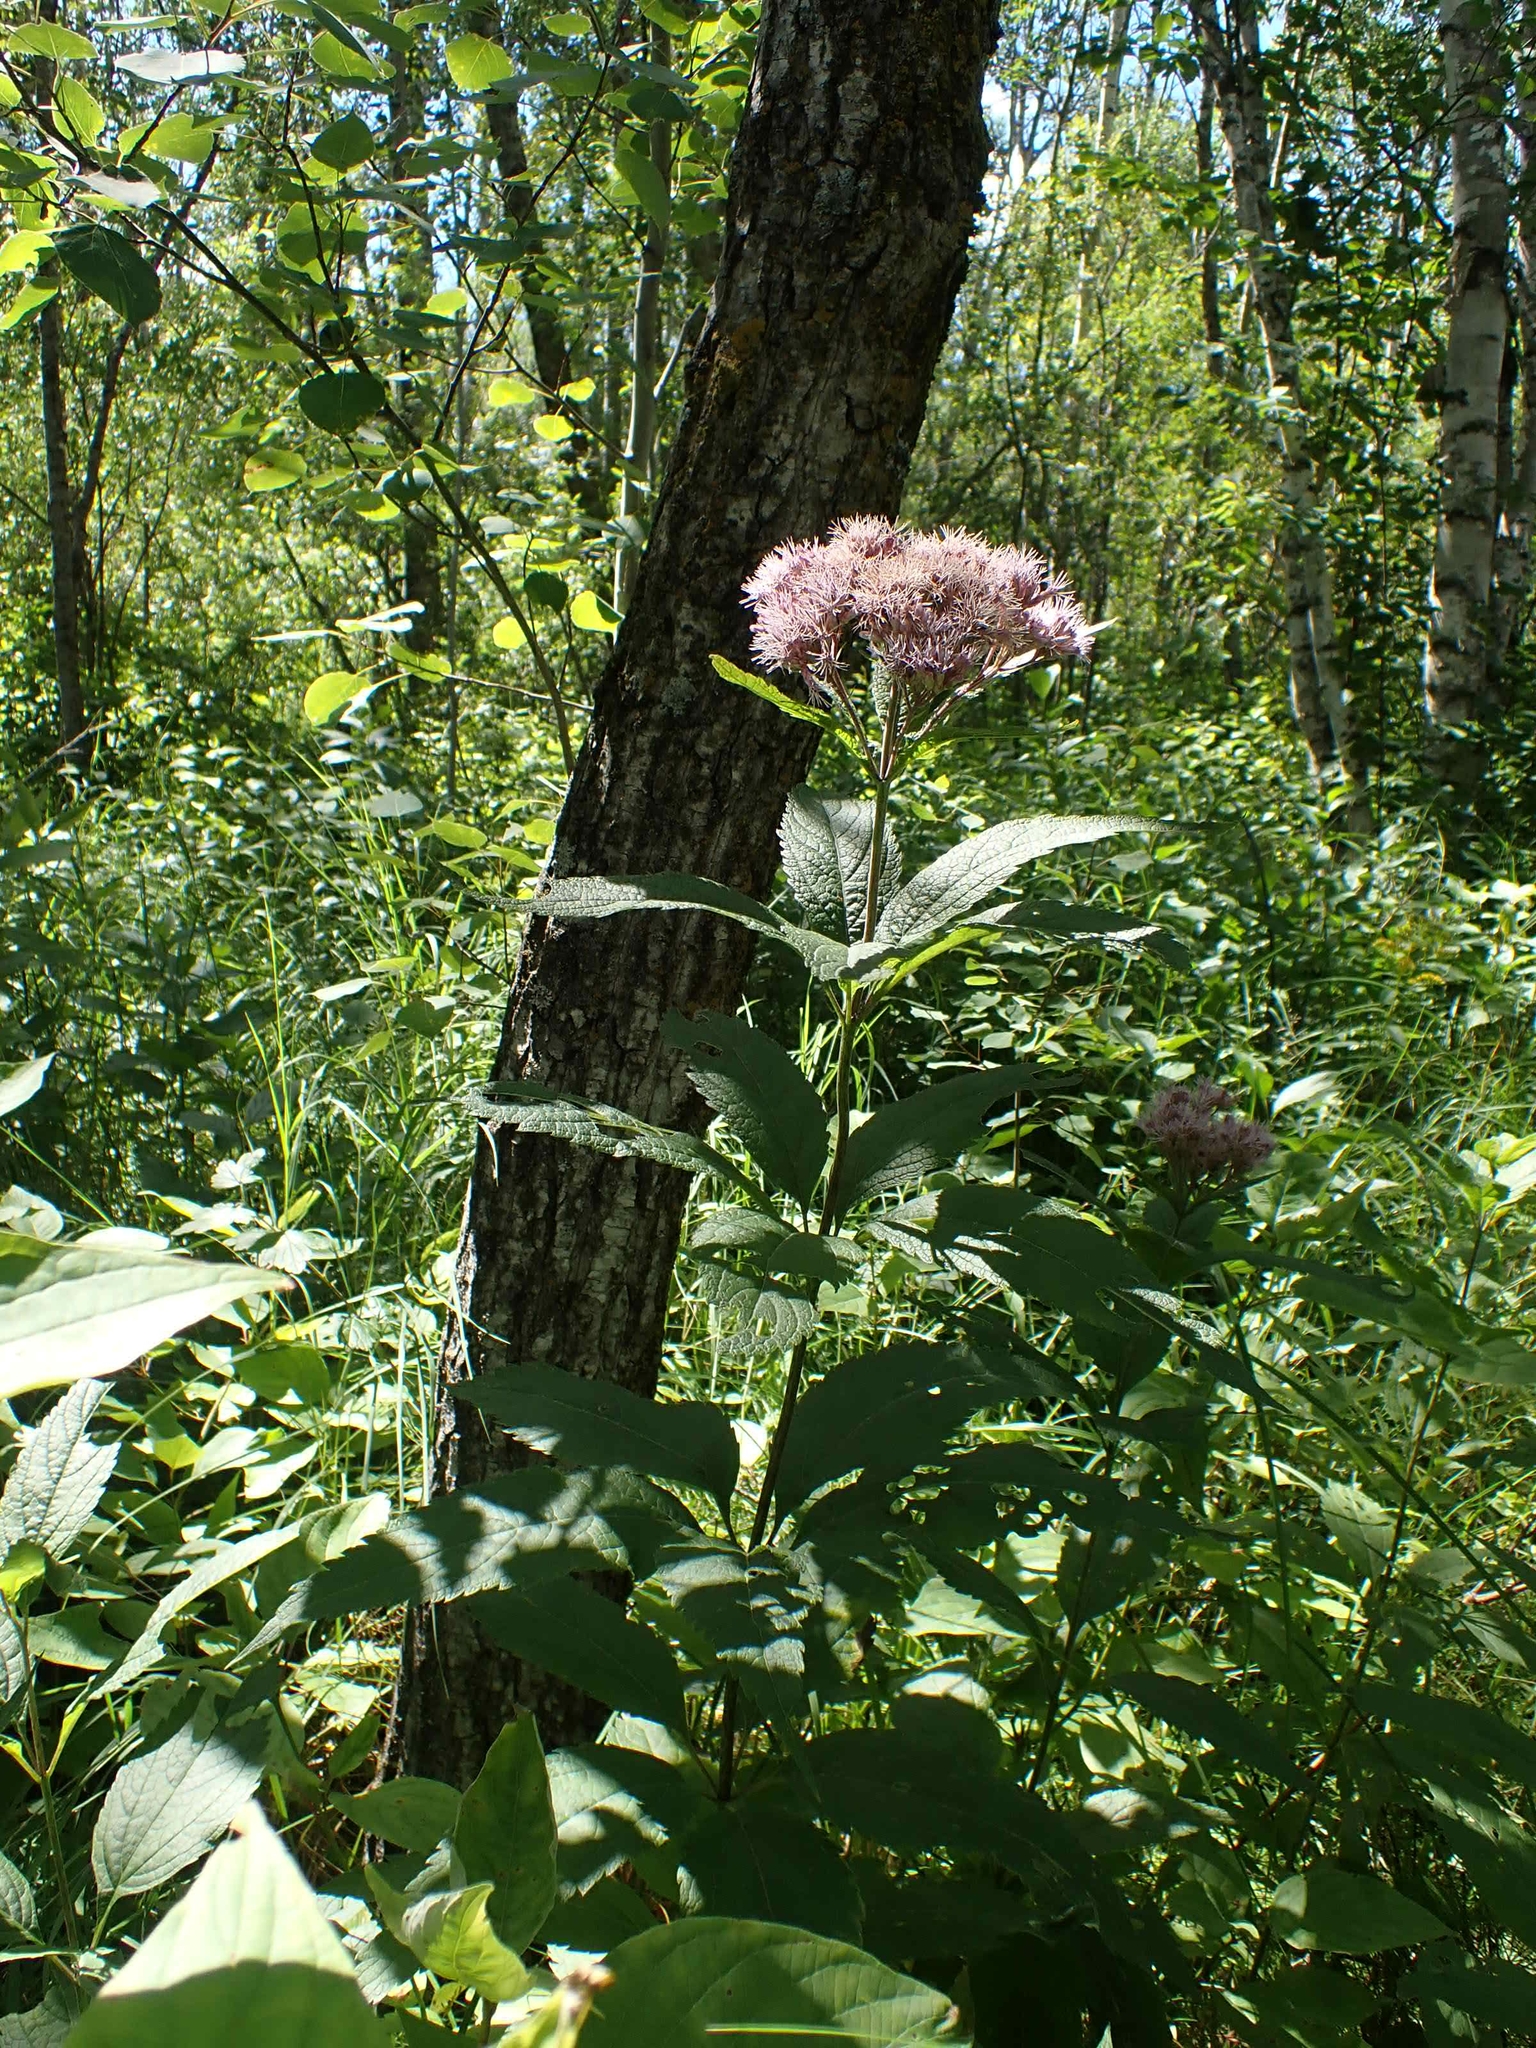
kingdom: Plantae
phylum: Tracheophyta
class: Magnoliopsida
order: Asterales
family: Asteraceae
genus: Eutrochium
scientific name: Eutrochium maculatum
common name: Spotted joe pye weed
